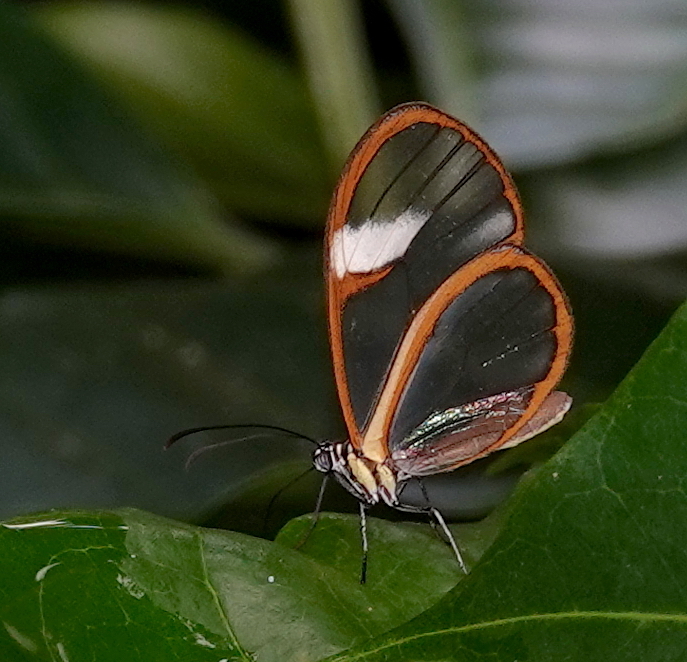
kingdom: Animalia
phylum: Arthropoda
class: Insecta
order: Lepidoptera
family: Nymphalidae
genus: Episcada
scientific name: Episcada salvinia
